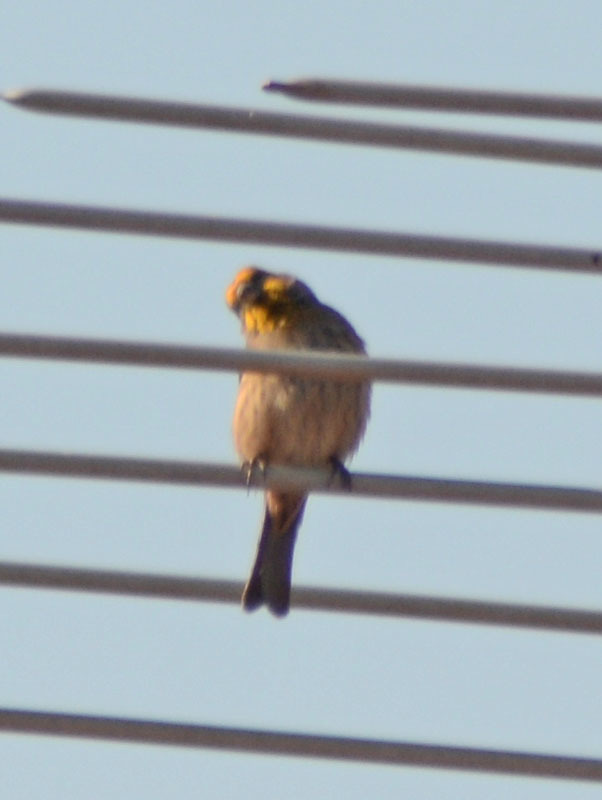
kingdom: Animalia
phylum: Chordata
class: Aves
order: Passeriformes
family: Fringillidae
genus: Haemorhous
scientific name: Haemorhous mexicanus
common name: House finch
